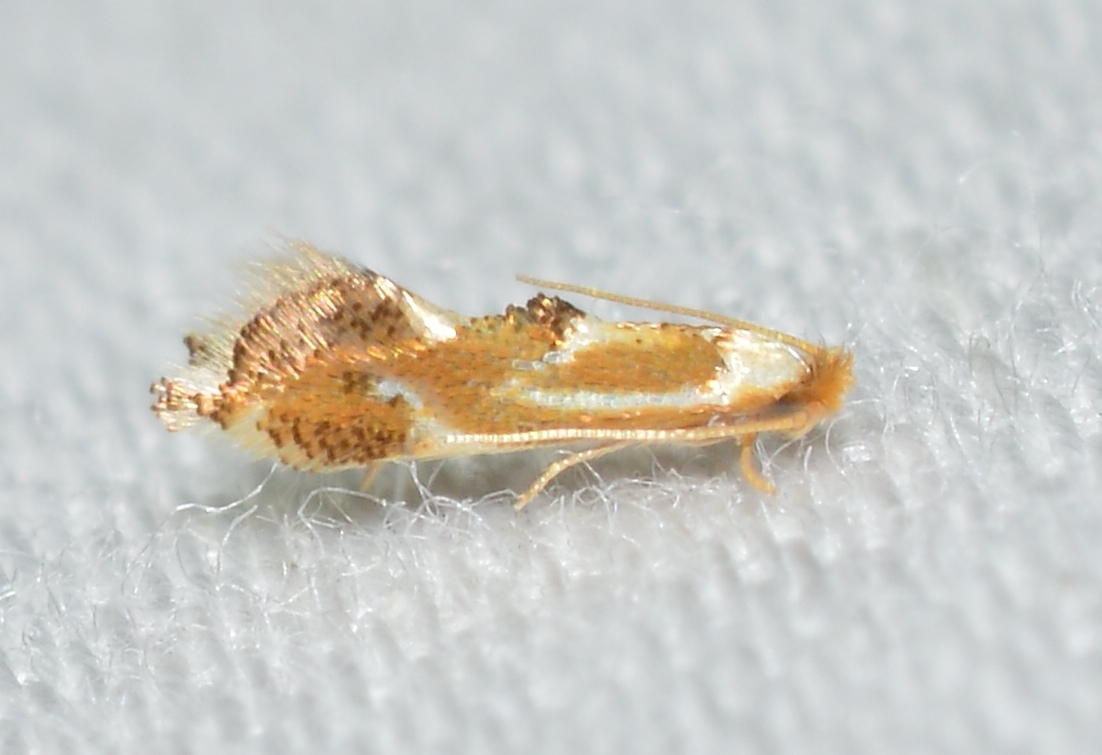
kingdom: Animalia
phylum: Arthropoda
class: Insecta
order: Lepidoptera
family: Lyonetiidae
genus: Philonome
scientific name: Philonome clemensella
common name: Clemen's philonome moth
